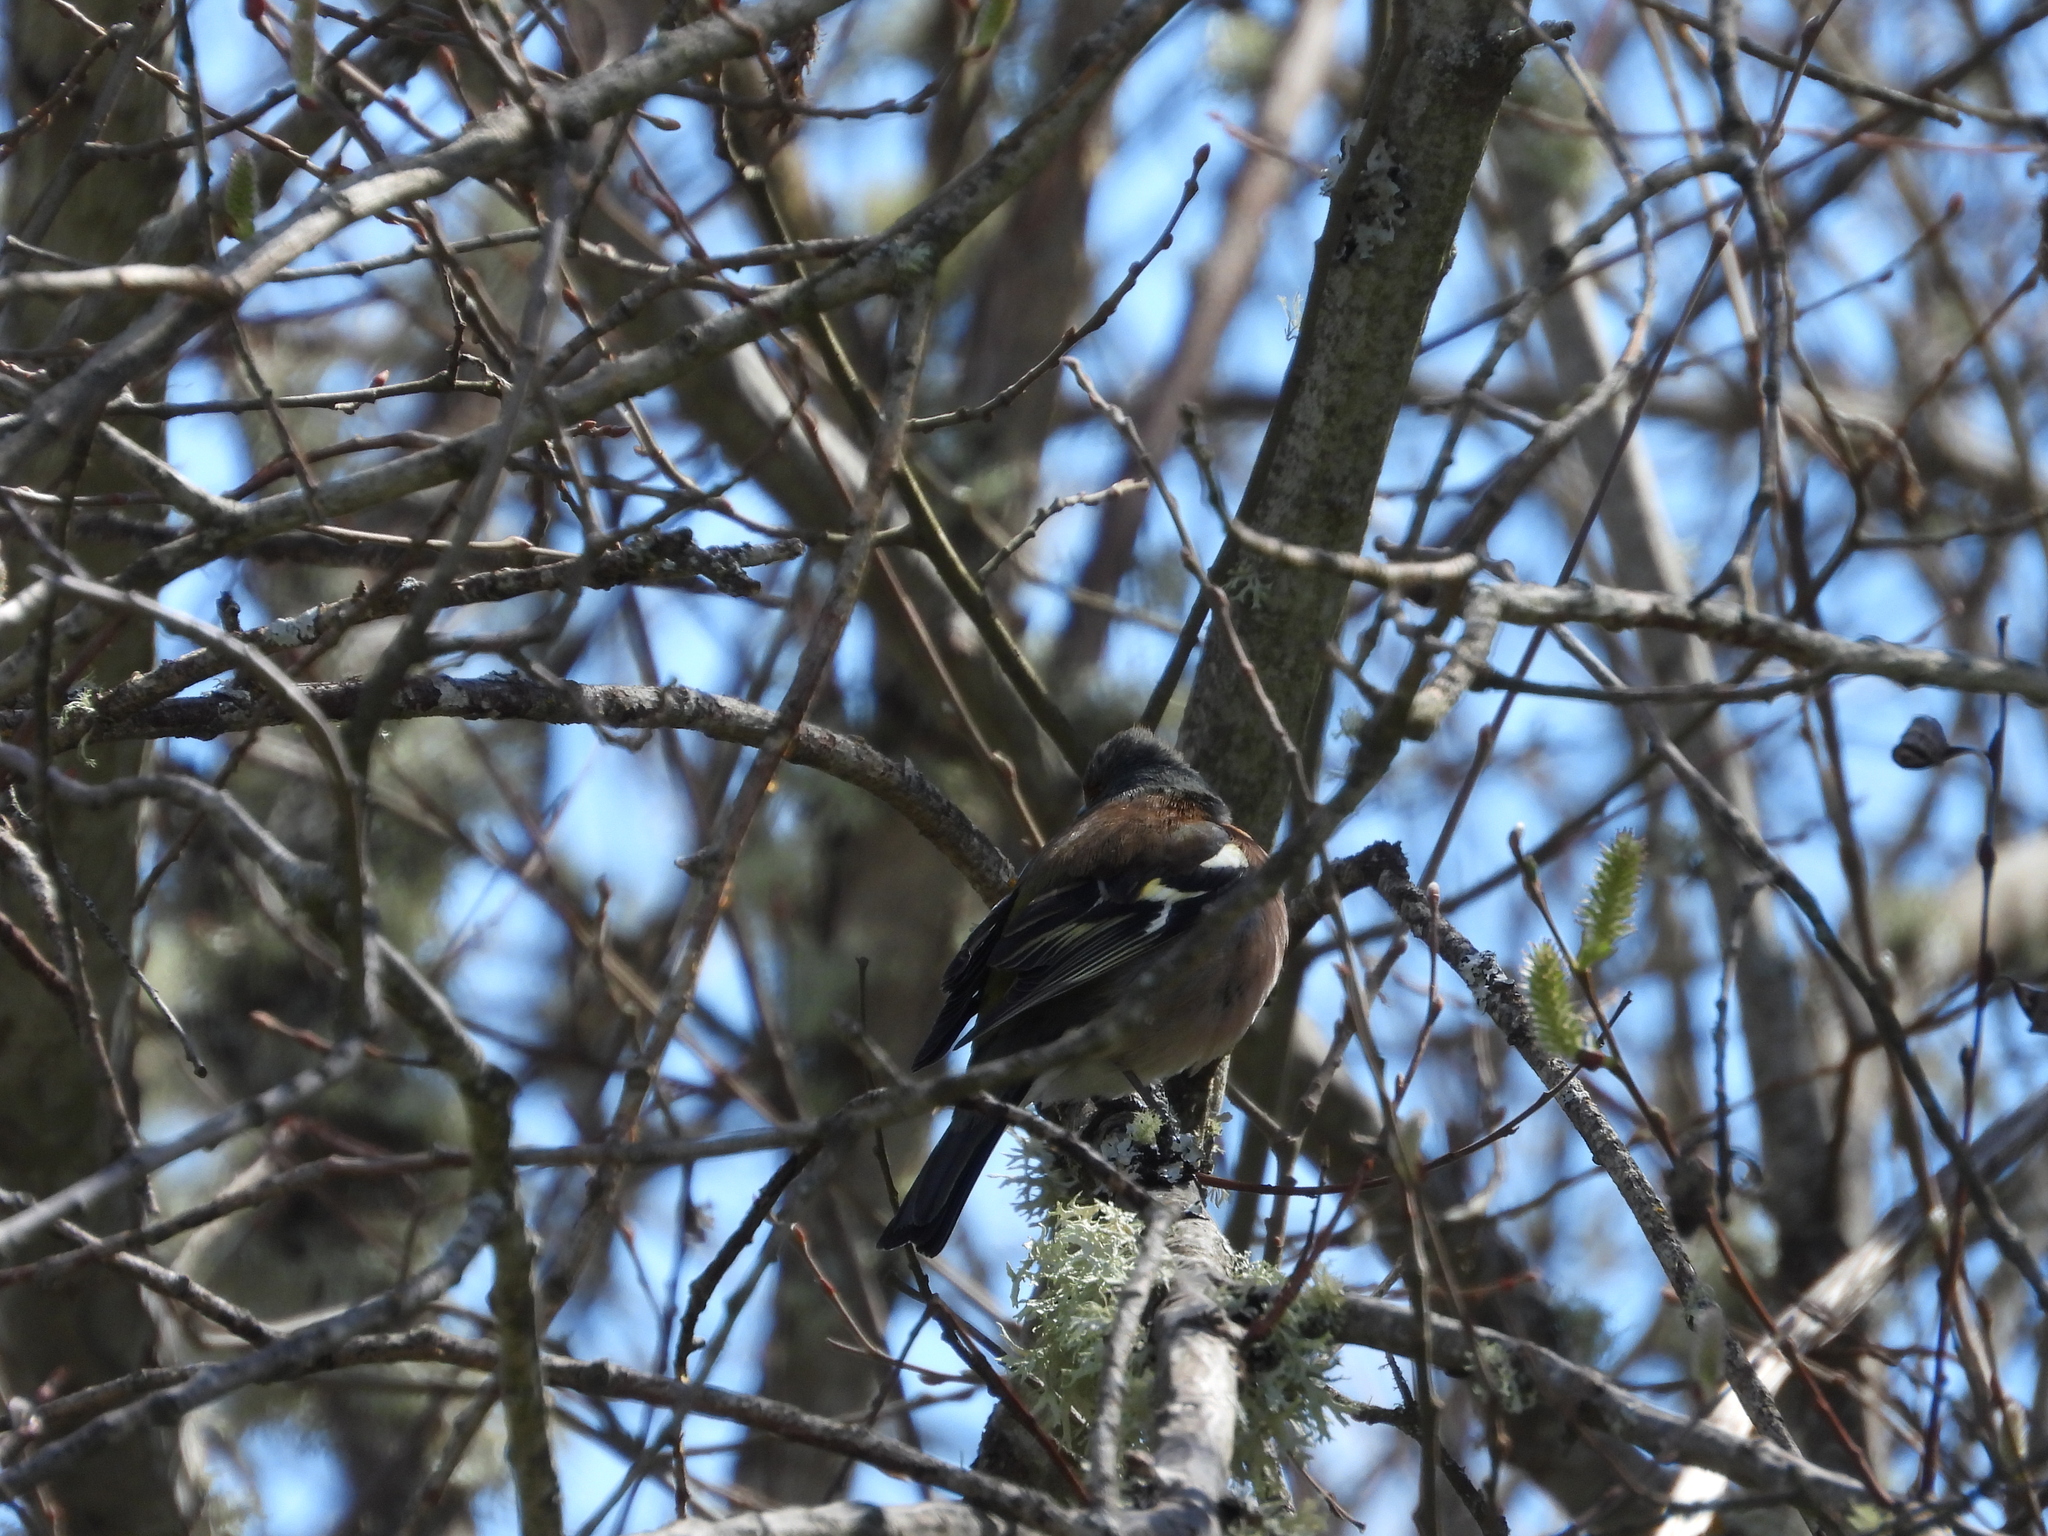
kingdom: Animalia
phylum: Chordata
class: Aves
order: Passeriformes
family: Fringillidae
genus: Fringilla
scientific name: Fringilla coelebs
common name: Common chaffinch
